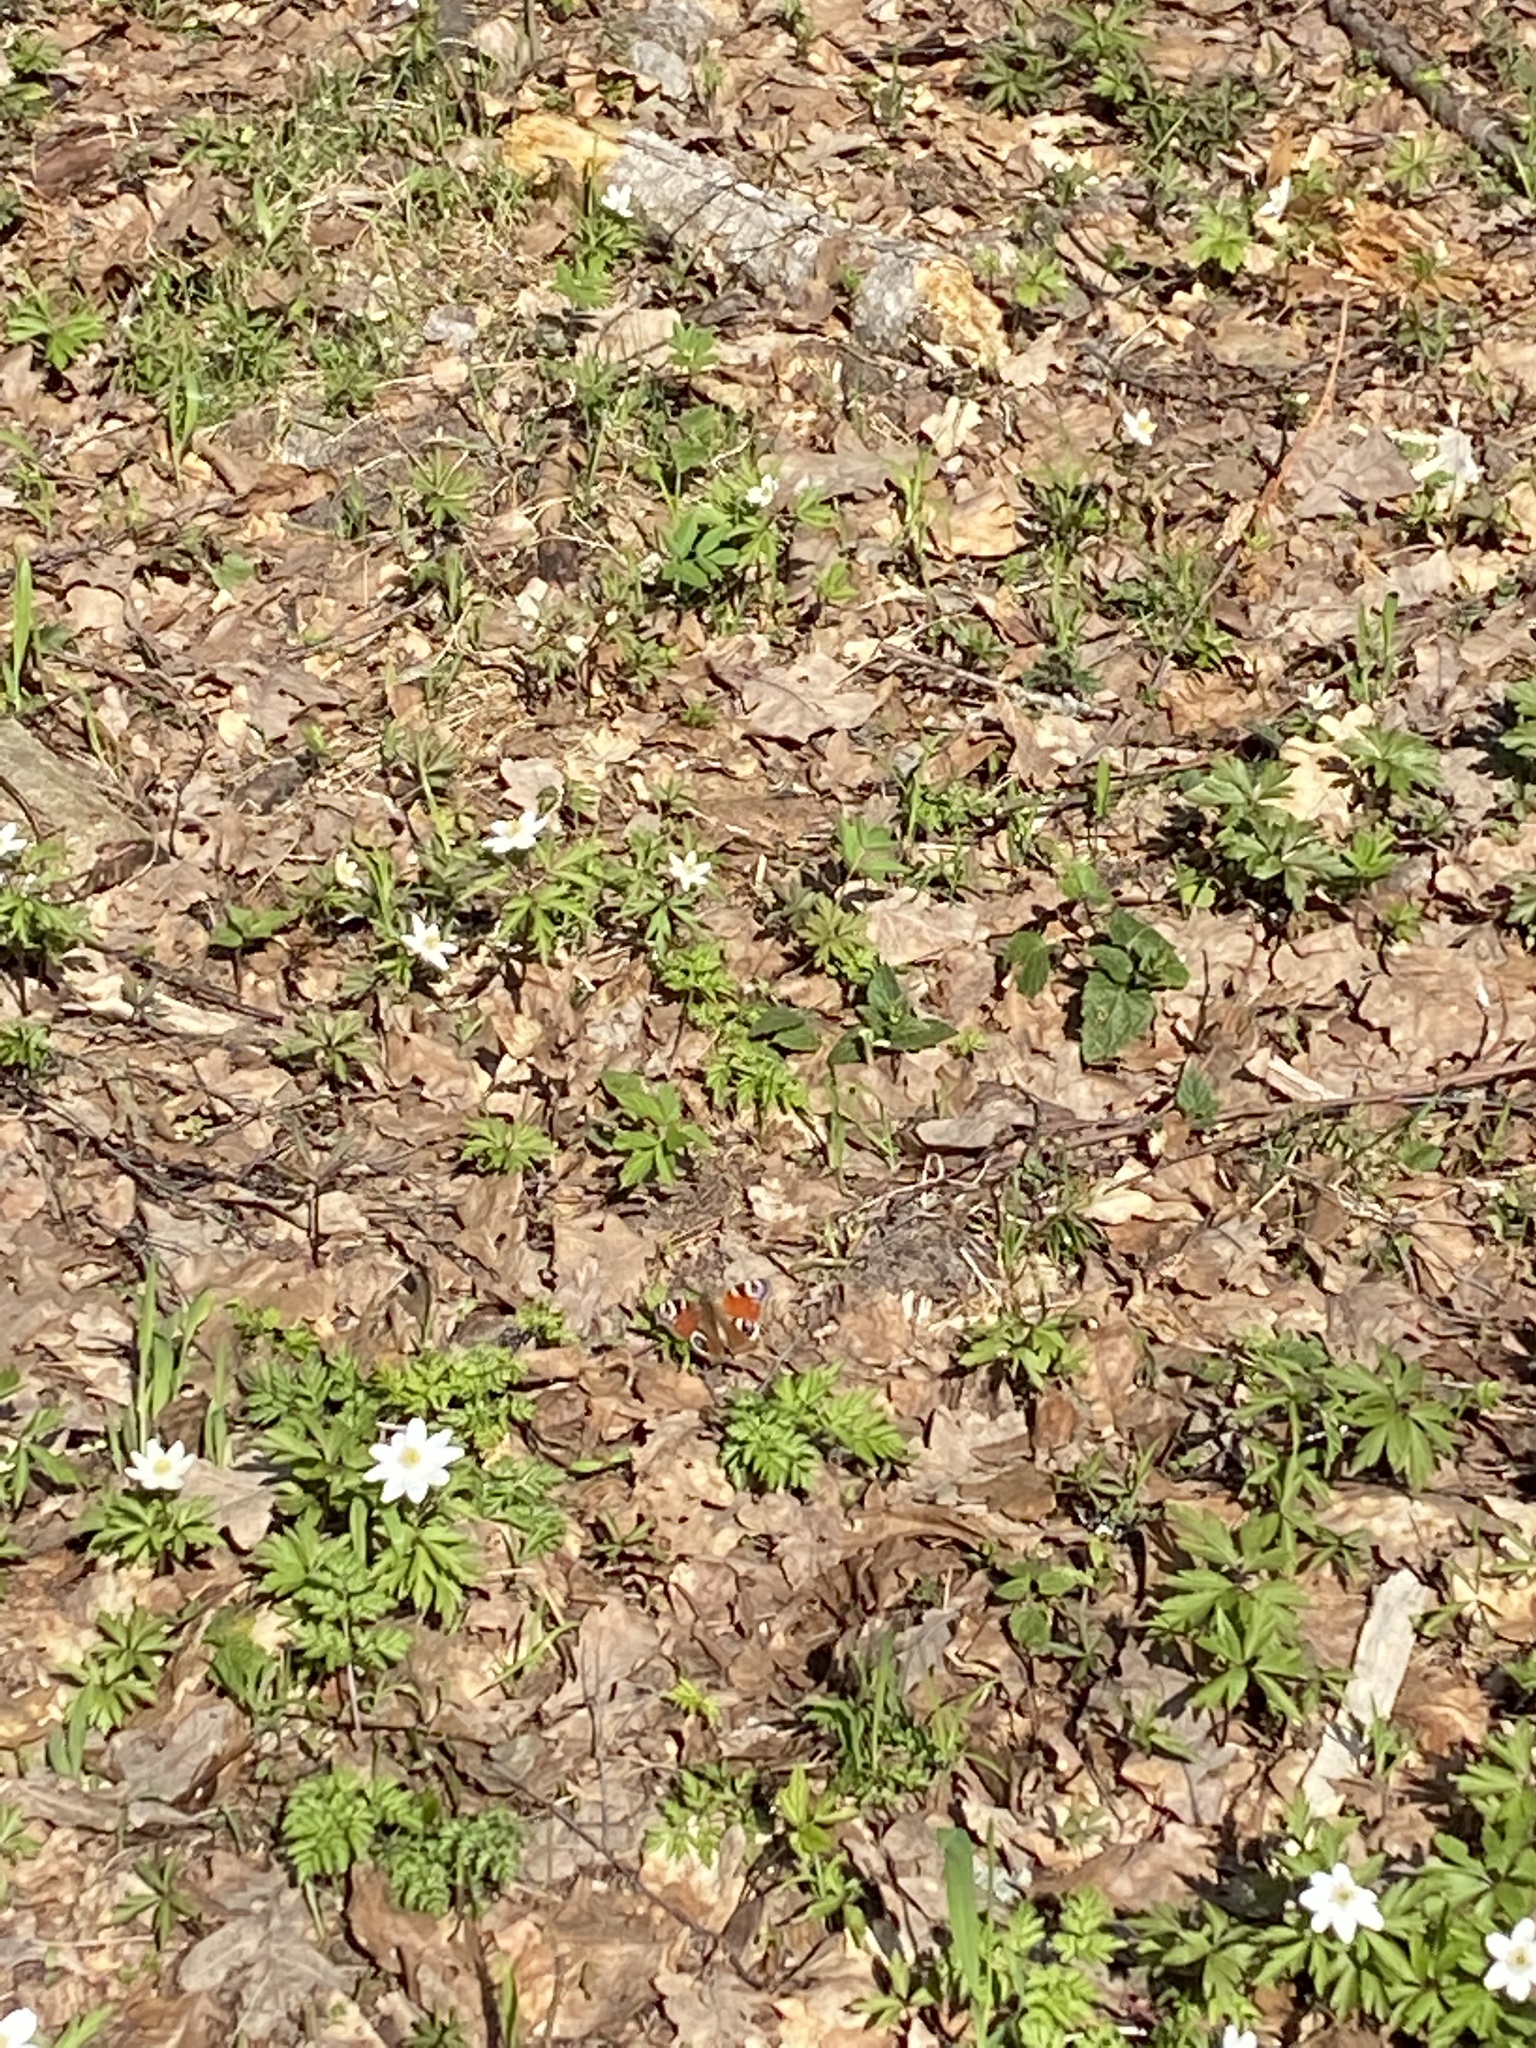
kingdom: Animalia
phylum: Arthropoda
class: Insecta
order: Lepidoptera
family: Nymphalidae
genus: Aglais
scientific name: Aglais io
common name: Peacock
